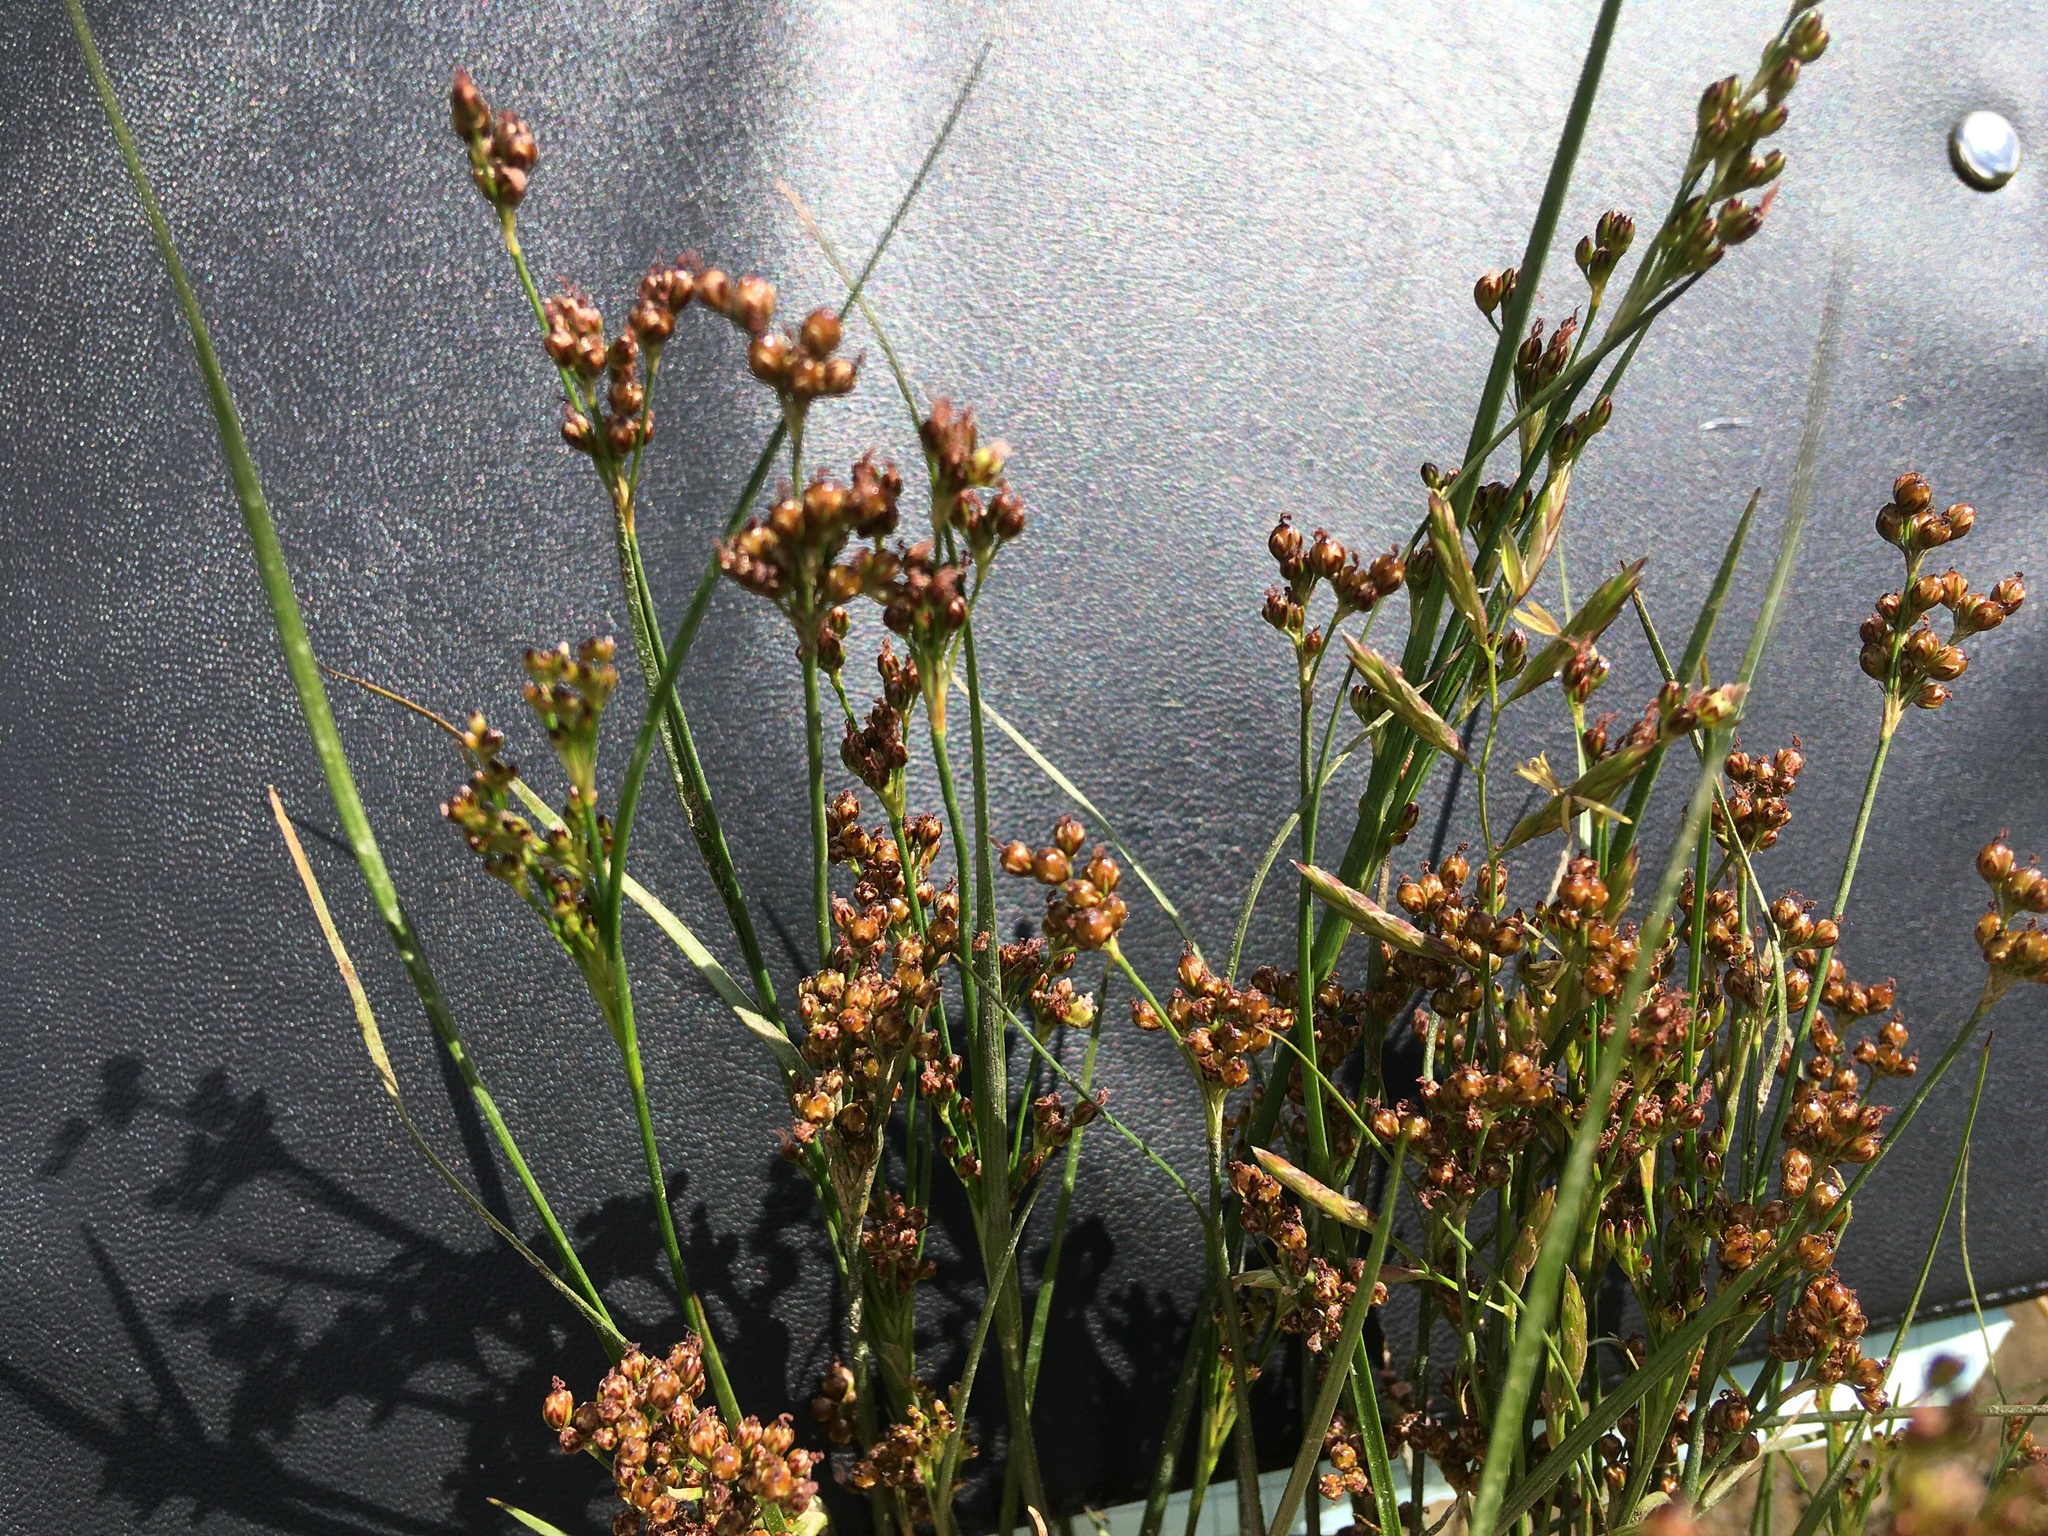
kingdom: Plantae
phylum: Tracheophyta
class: Liliopsida
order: Poales
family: Juncaceae
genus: Juncus
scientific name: Juncus compressus
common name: Round-fruited rush
